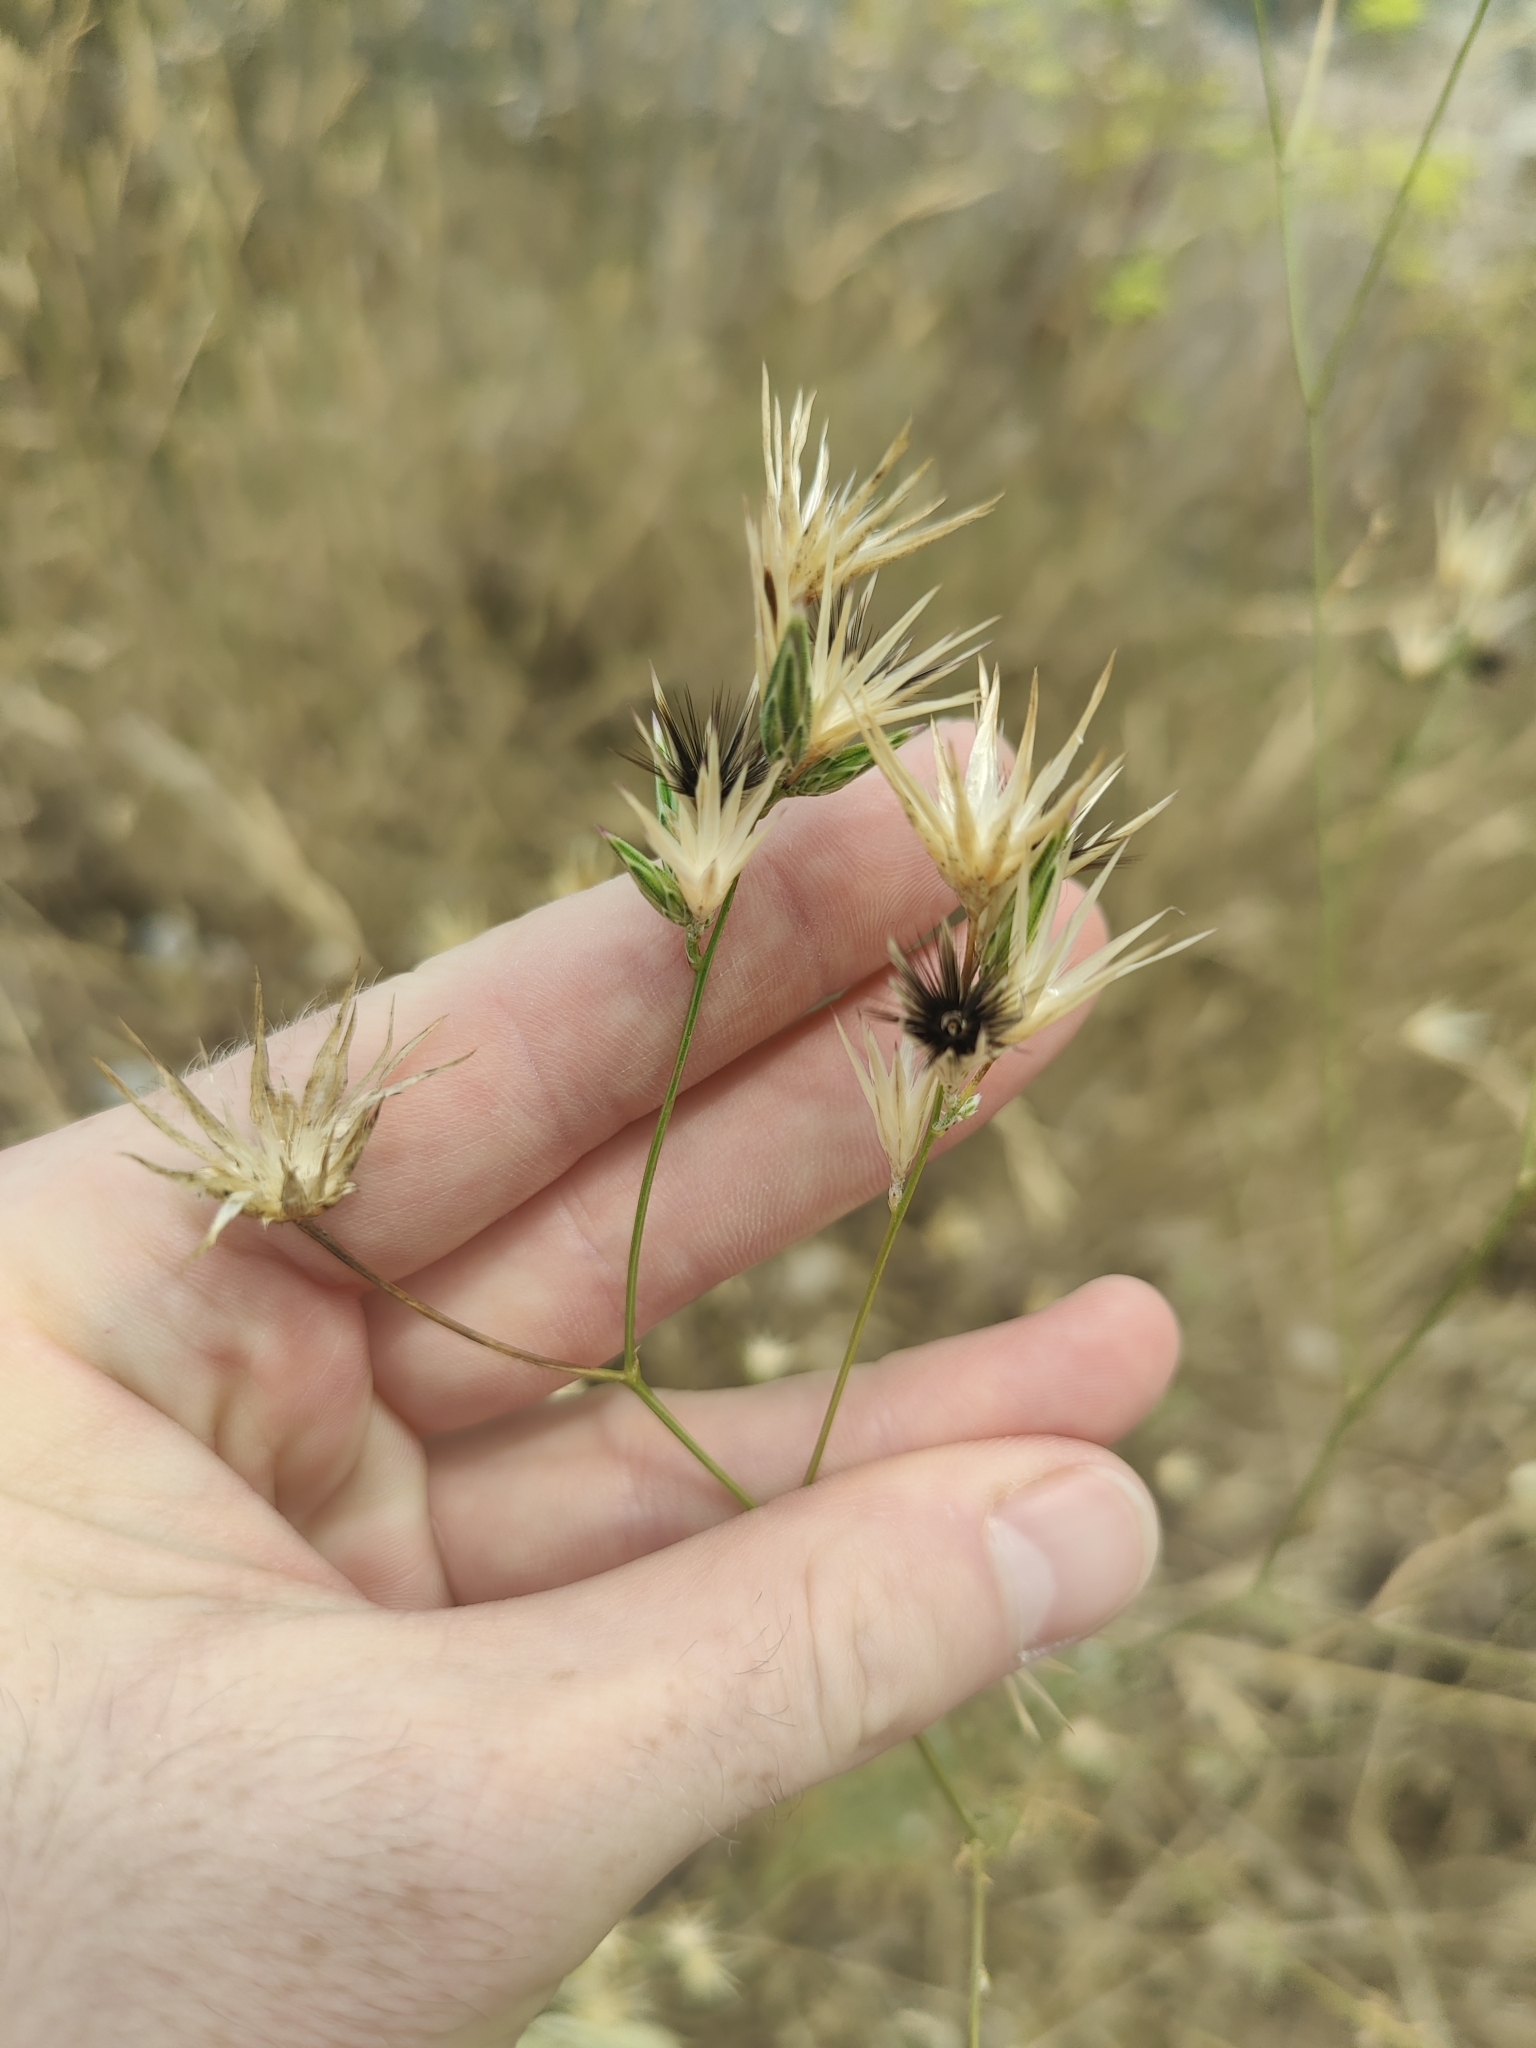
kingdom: Plantae
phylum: Tracheophyta
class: Magnoliopsida
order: Asterales
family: Asteraceae
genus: Crupina
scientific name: Crupina crupinastrum
